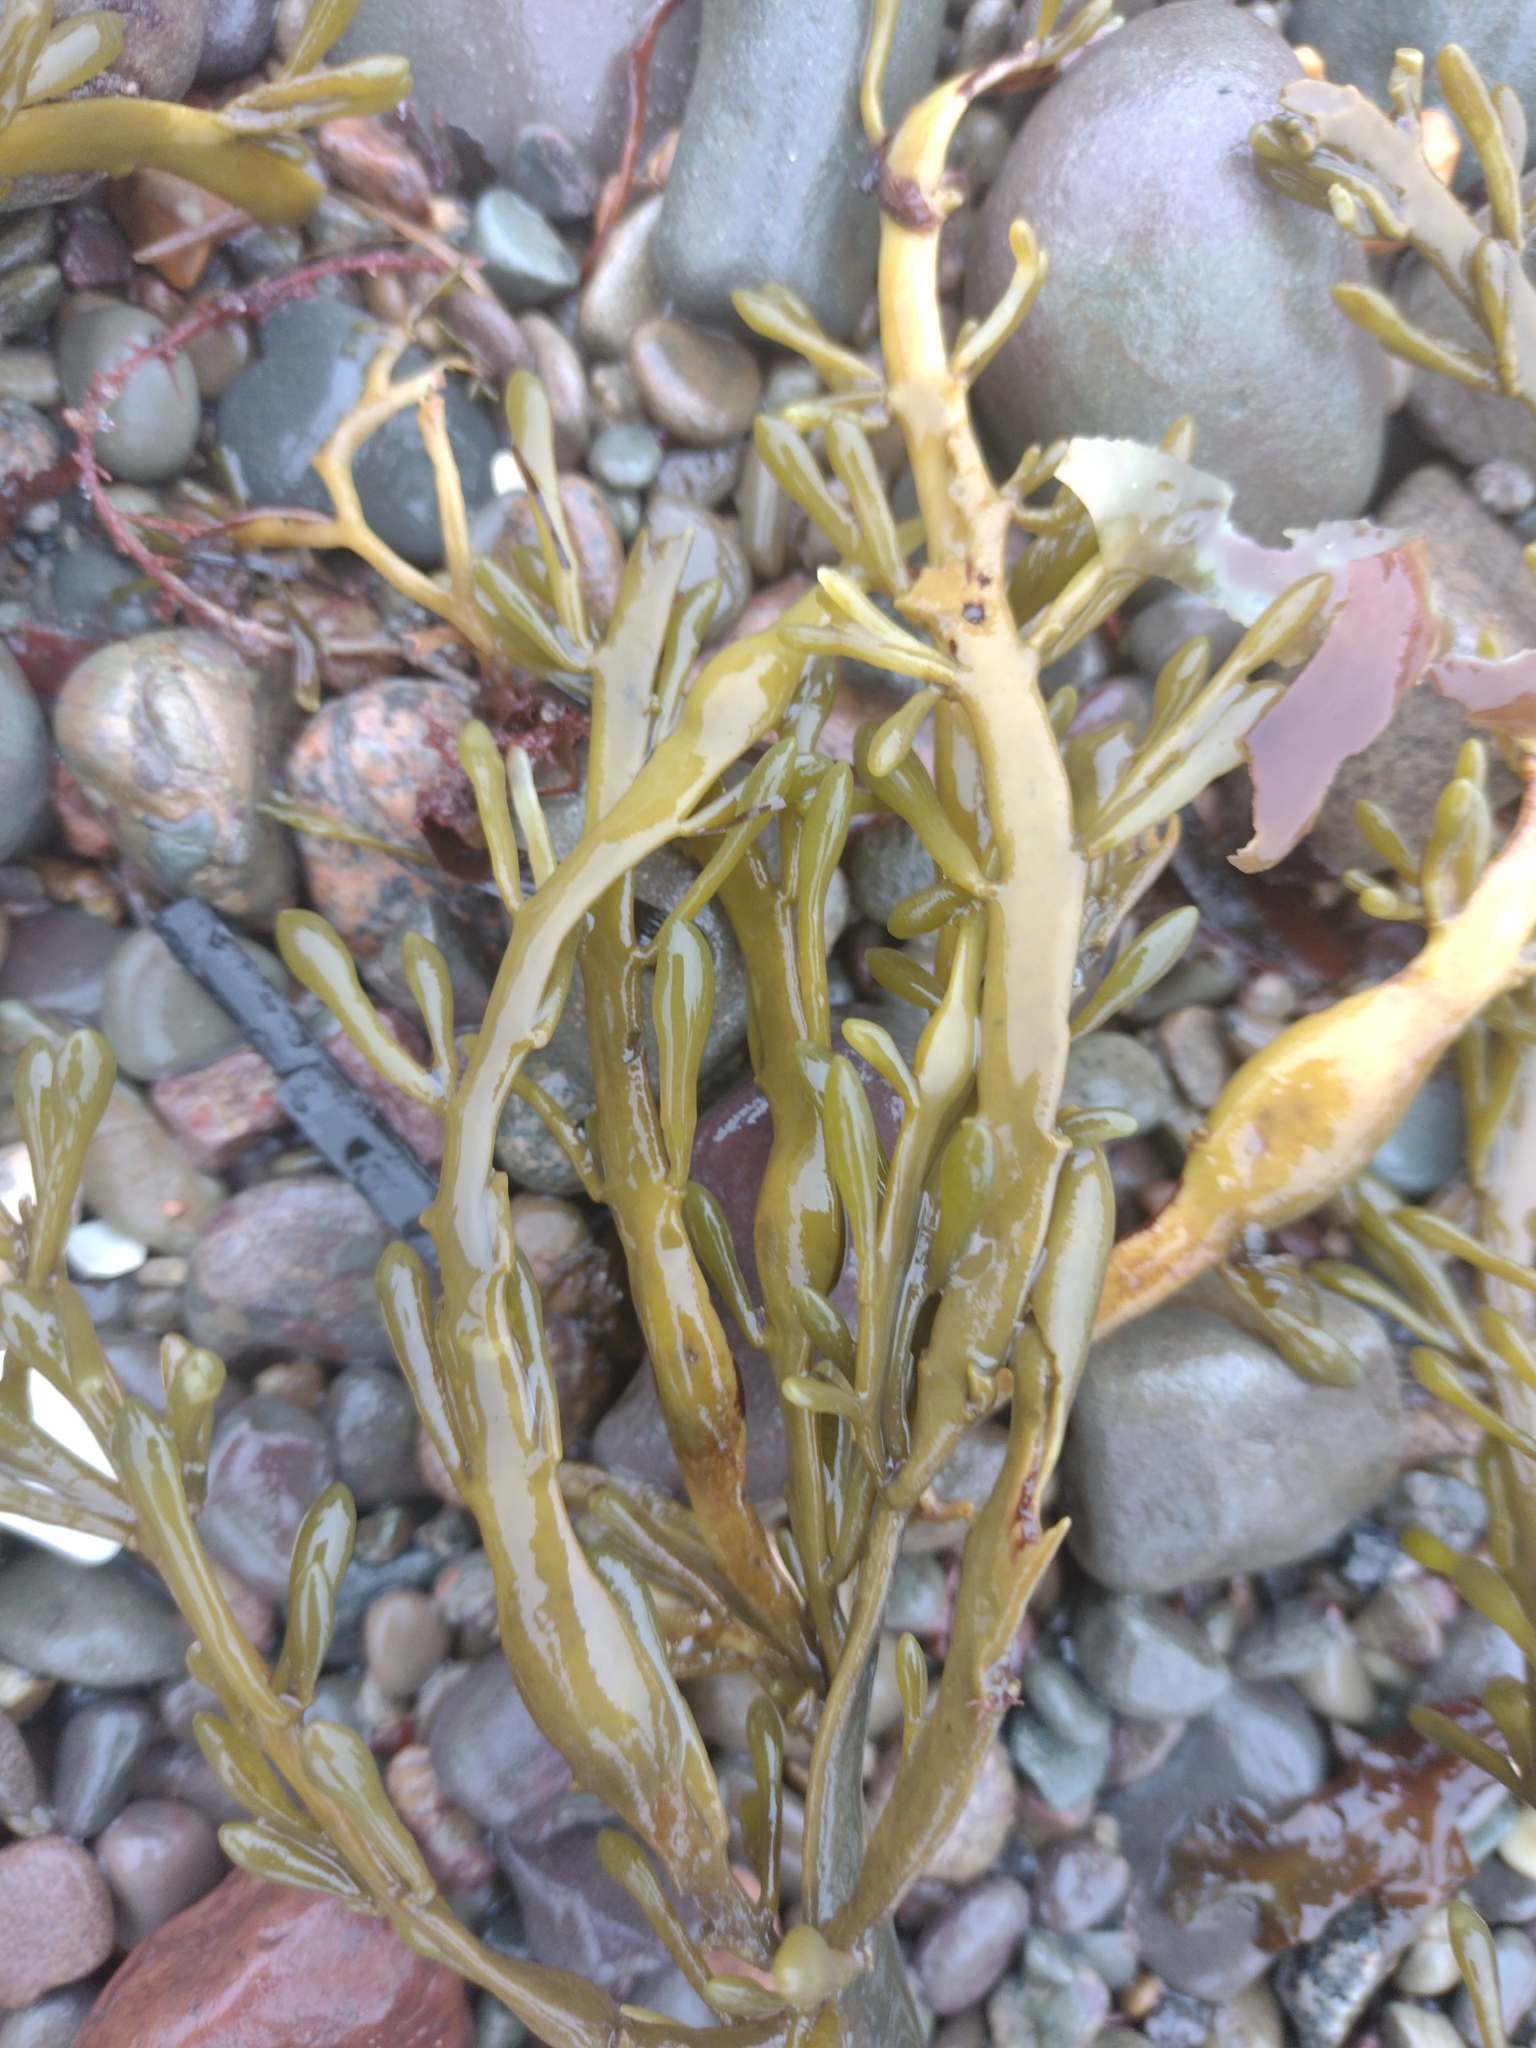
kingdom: Chromista
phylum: Ochrophyta
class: Phaeophyceae
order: Fucales
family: Fucaceae
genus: Ascophyllum
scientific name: Ascophyllum nodosum
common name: Knotted wrack
